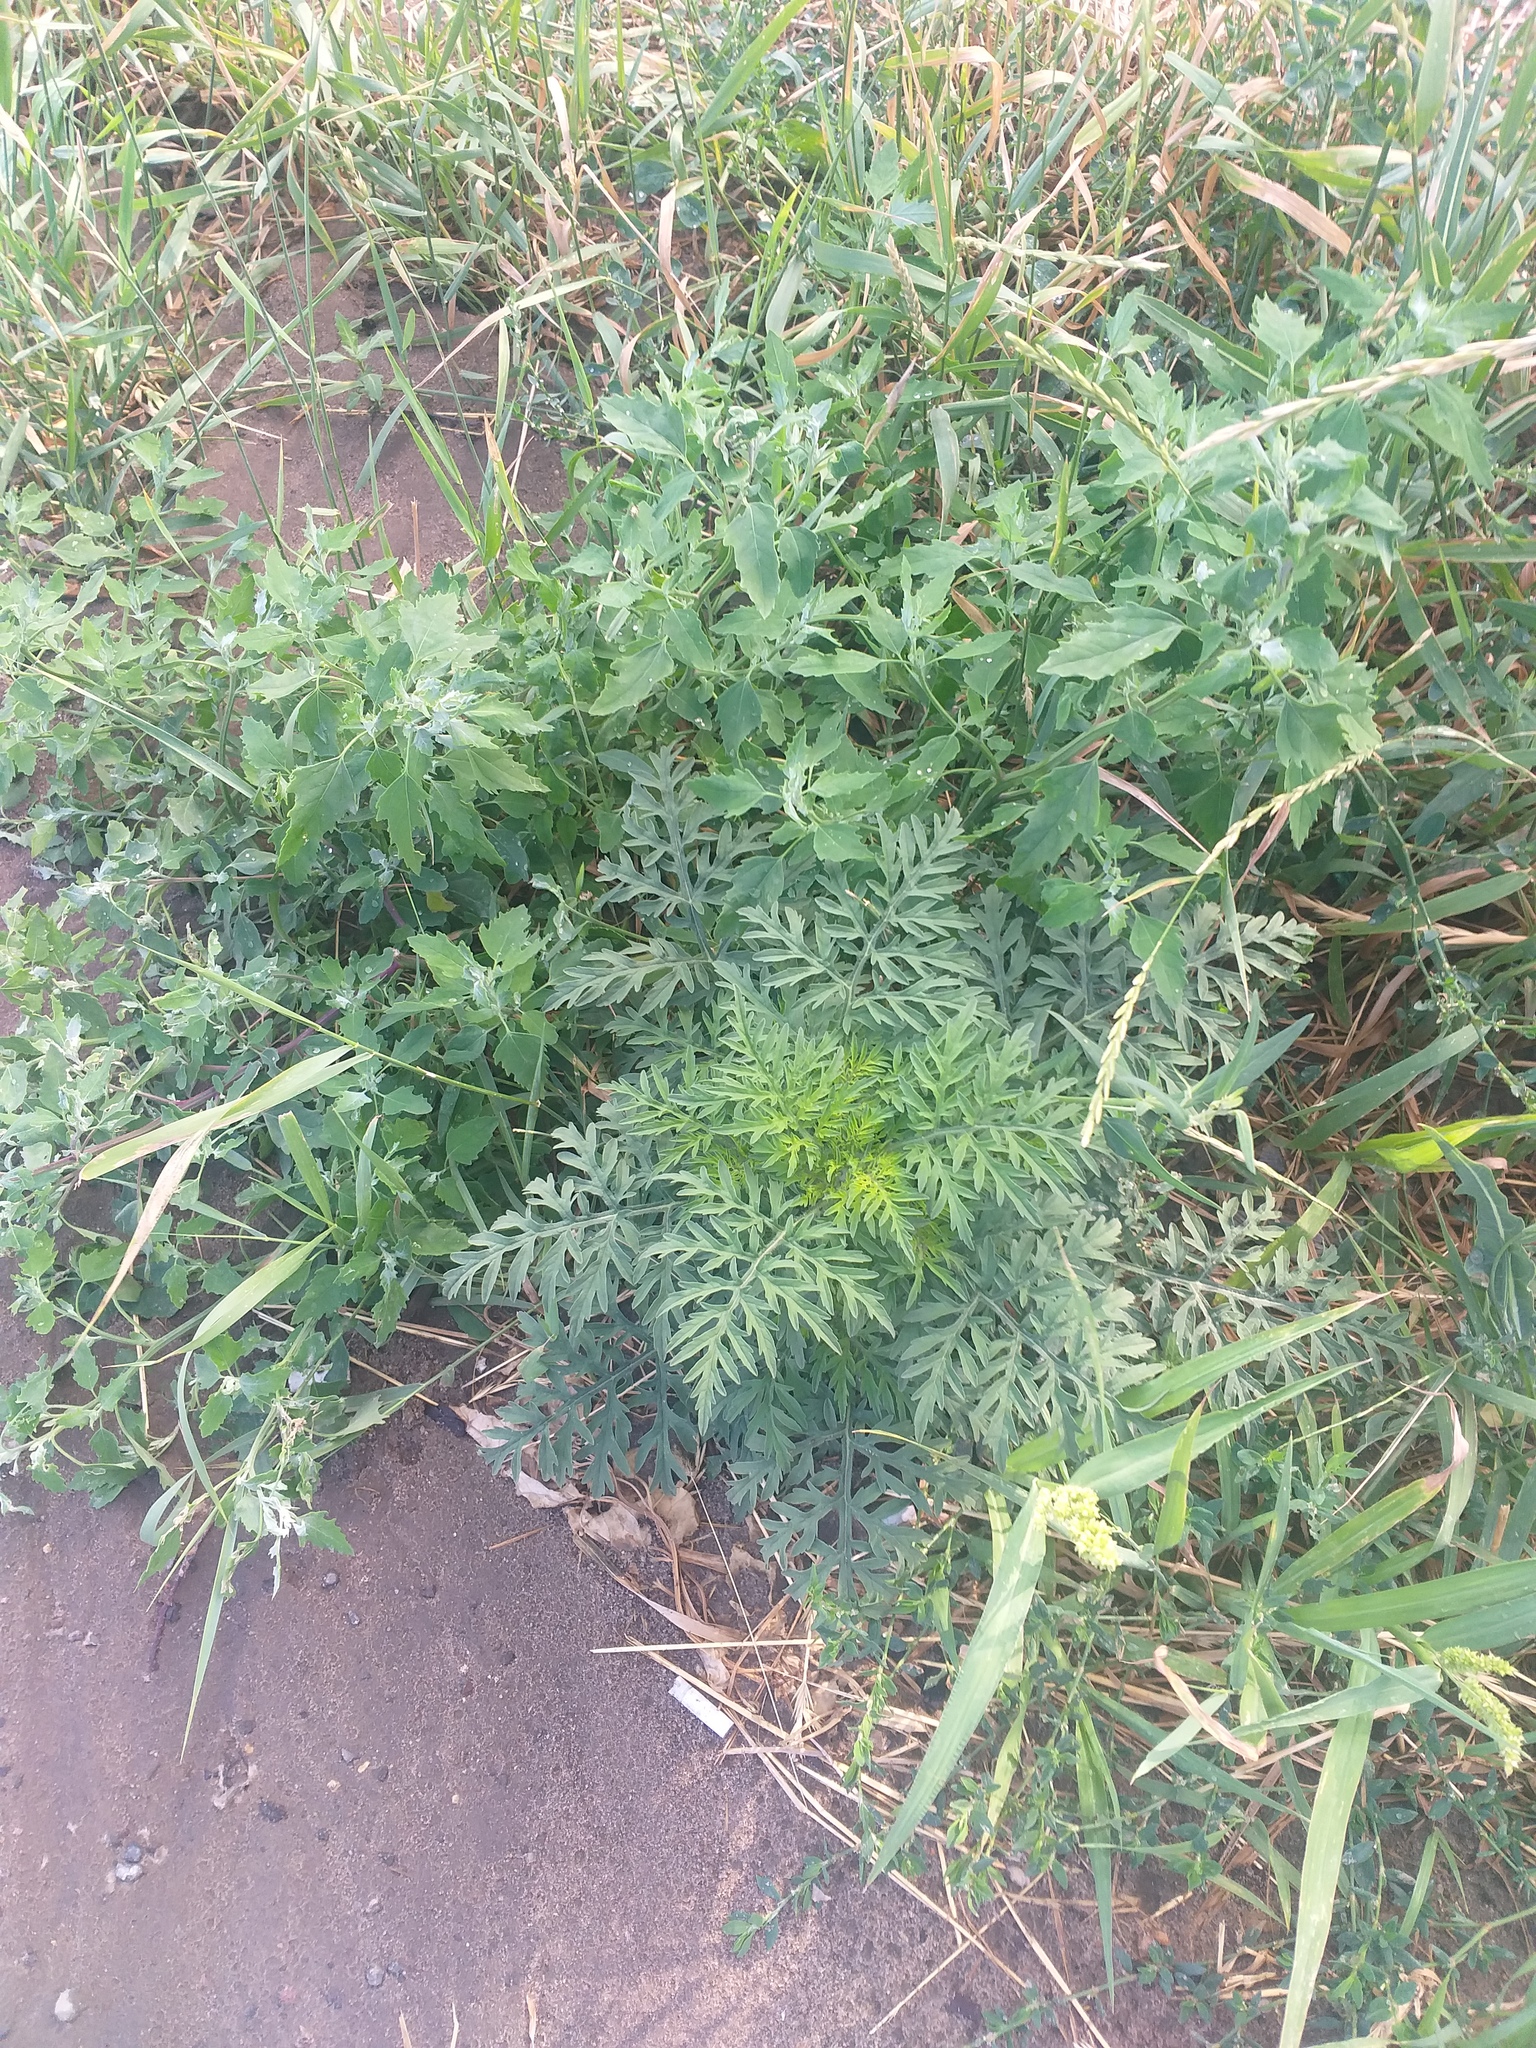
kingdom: Plantae
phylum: Tracheophyta
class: Magnoliopsida
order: Asterales
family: Asteraceae
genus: Ambrosia
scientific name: Ambrosia artemisiifolia
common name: Annual ragweed
